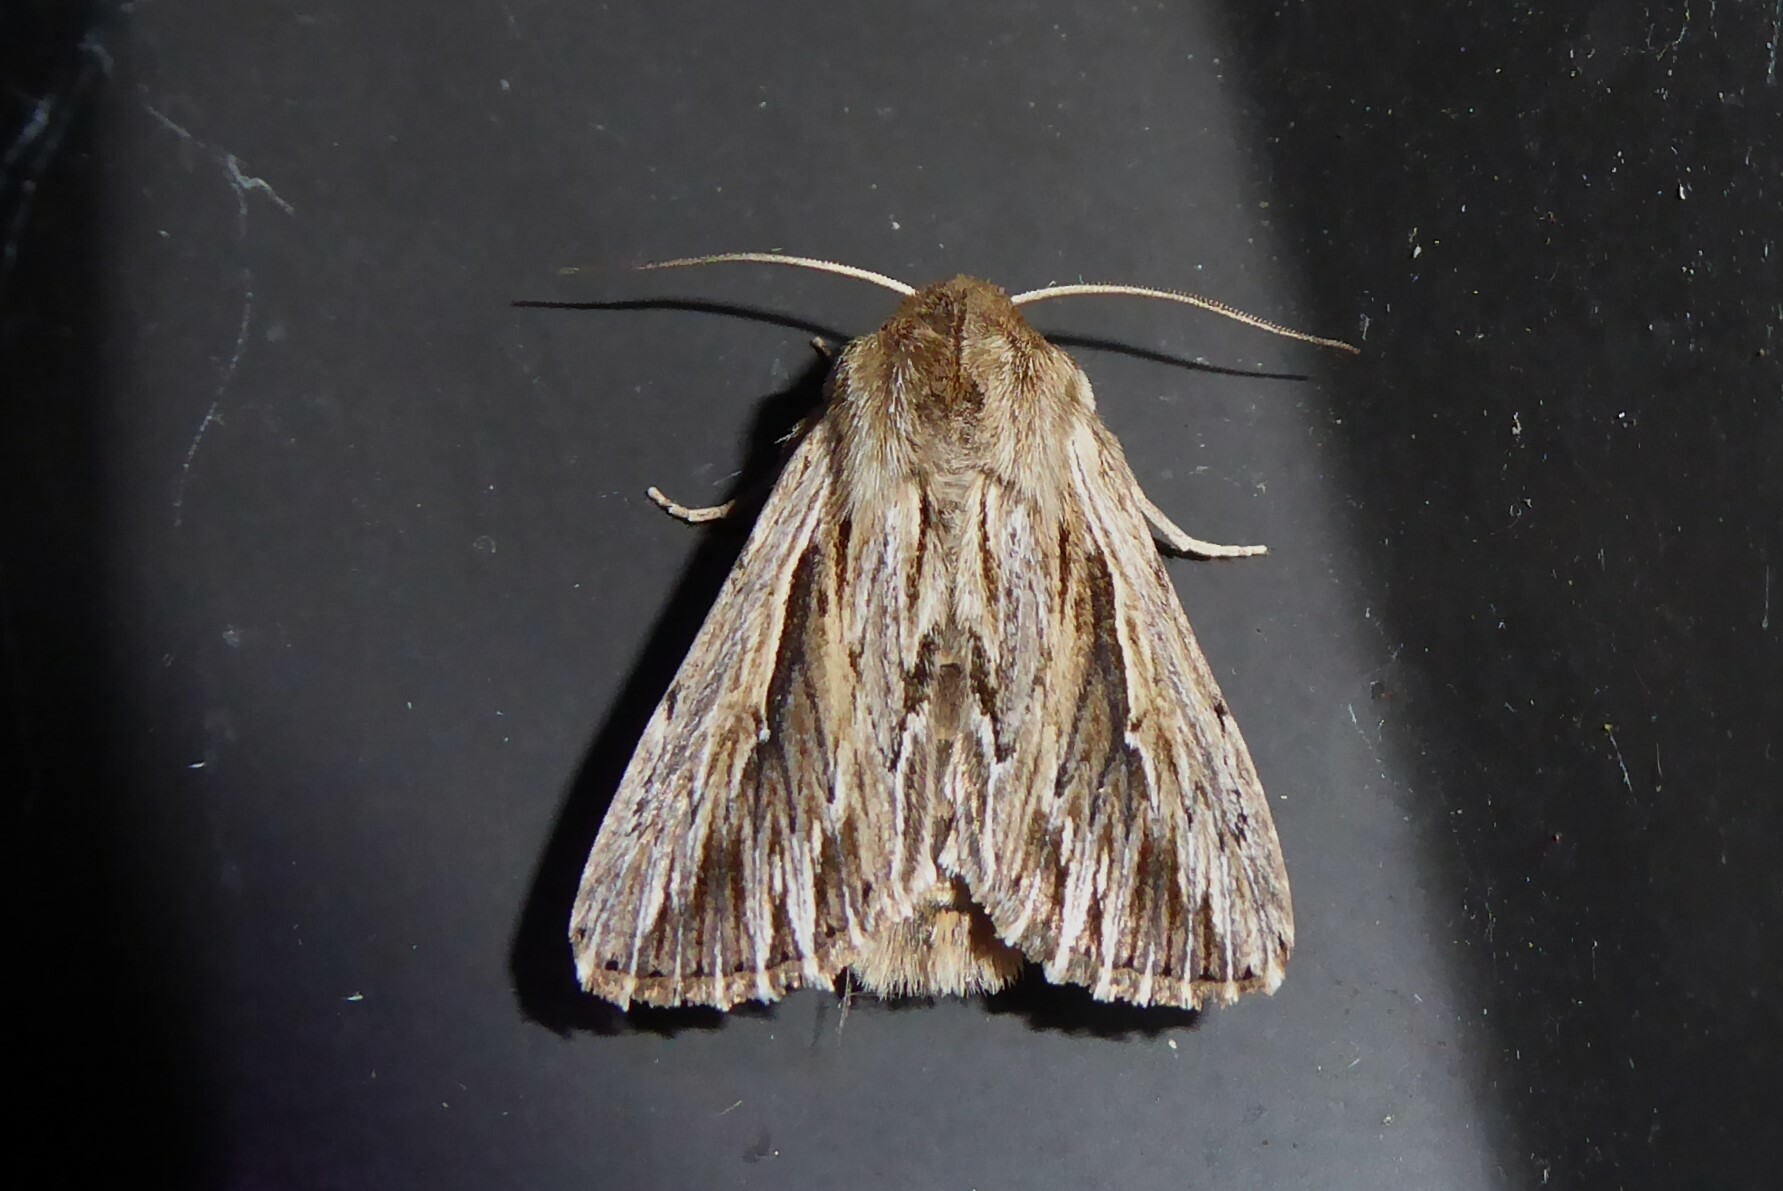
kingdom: Animalia
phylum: Arthropoda
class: Insecta
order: Lepidoptera
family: Noctuidae
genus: Persectania
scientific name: Persectania aversa
